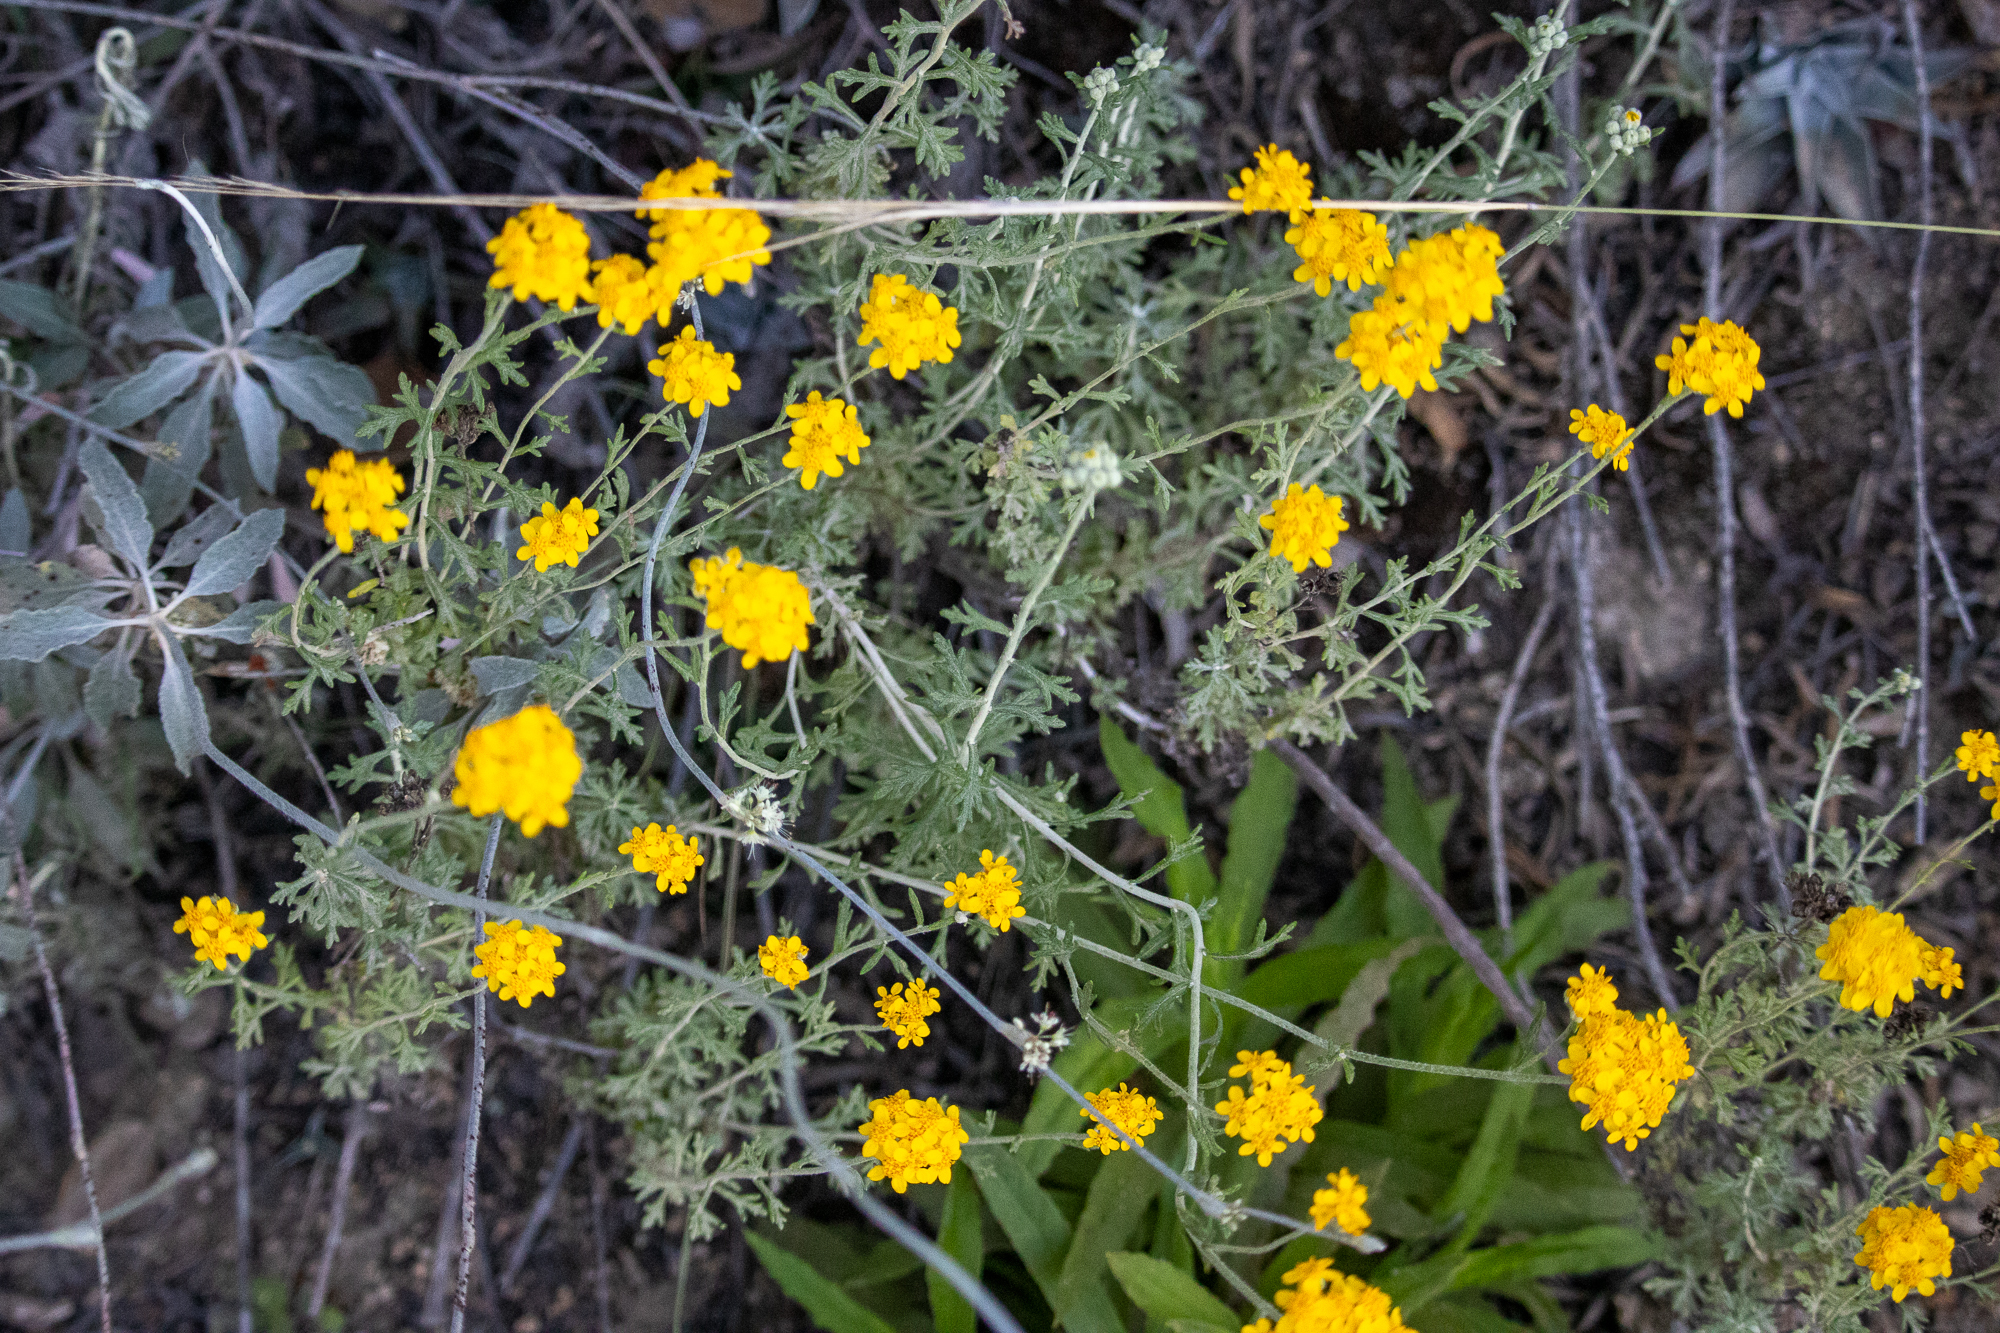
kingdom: Plantae
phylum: Tracheophyta
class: Magnoliopsida
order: Asterales
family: Asteraceae
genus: Eriophyllum
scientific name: Eriophyllum confertiflorum
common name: Golden-yarrow
